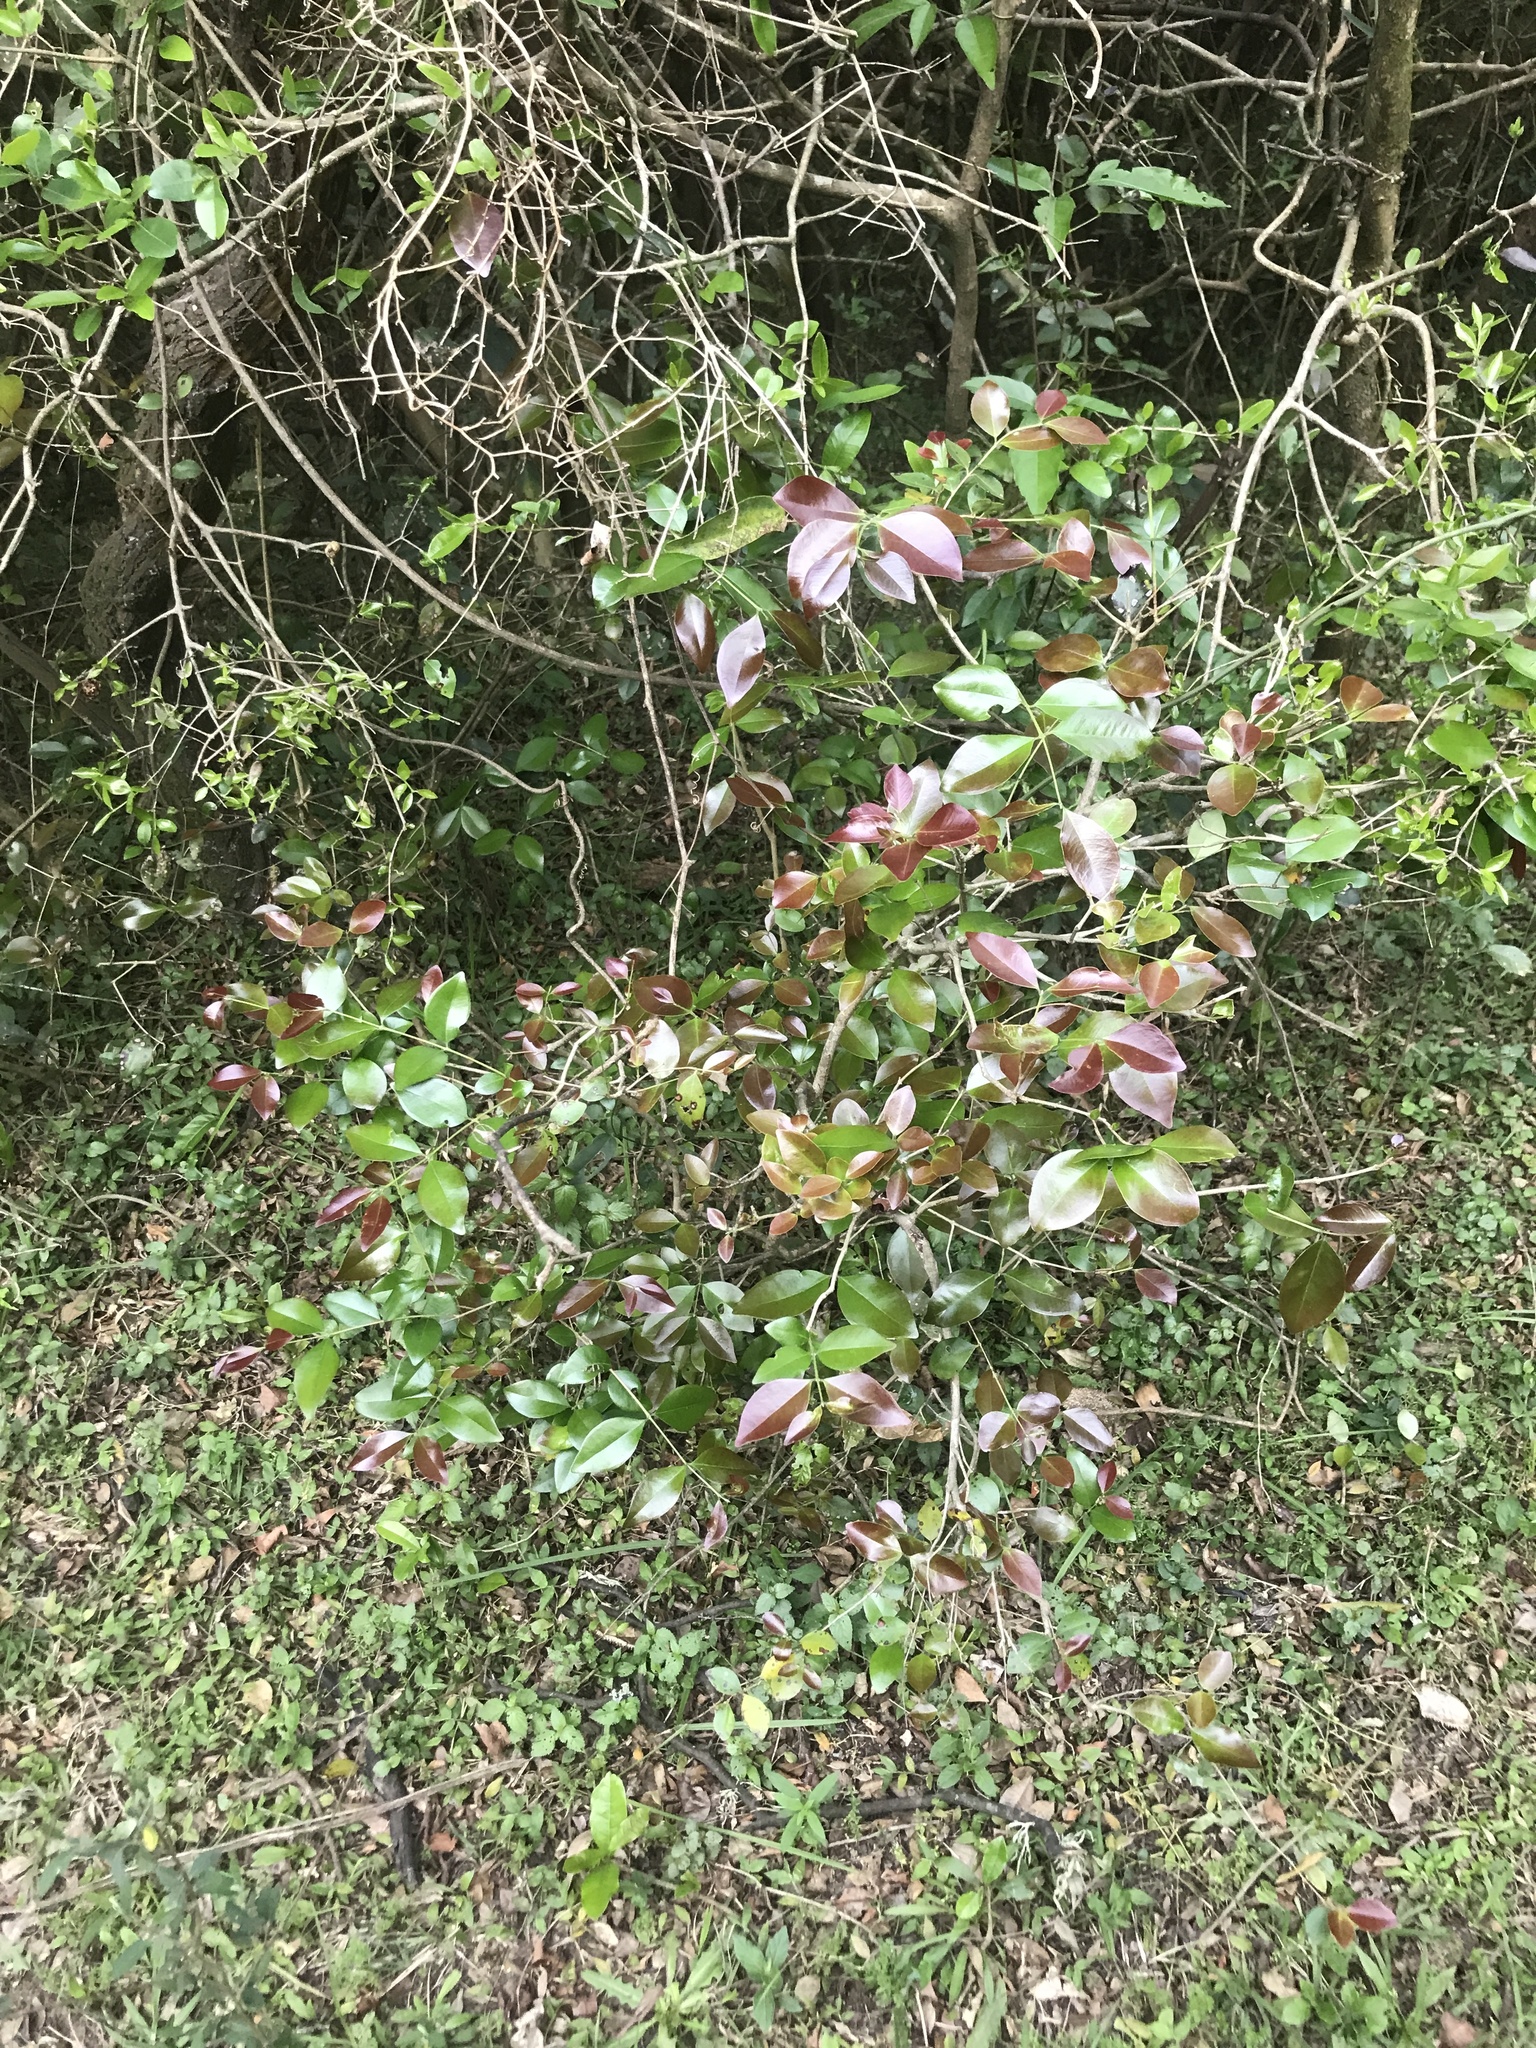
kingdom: Plantae
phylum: Tracheophyta
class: Magnoliopsida
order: Myrtales
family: Myrtaceae
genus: Psidium
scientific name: Psidium cattleianum
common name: Strawberry guava
